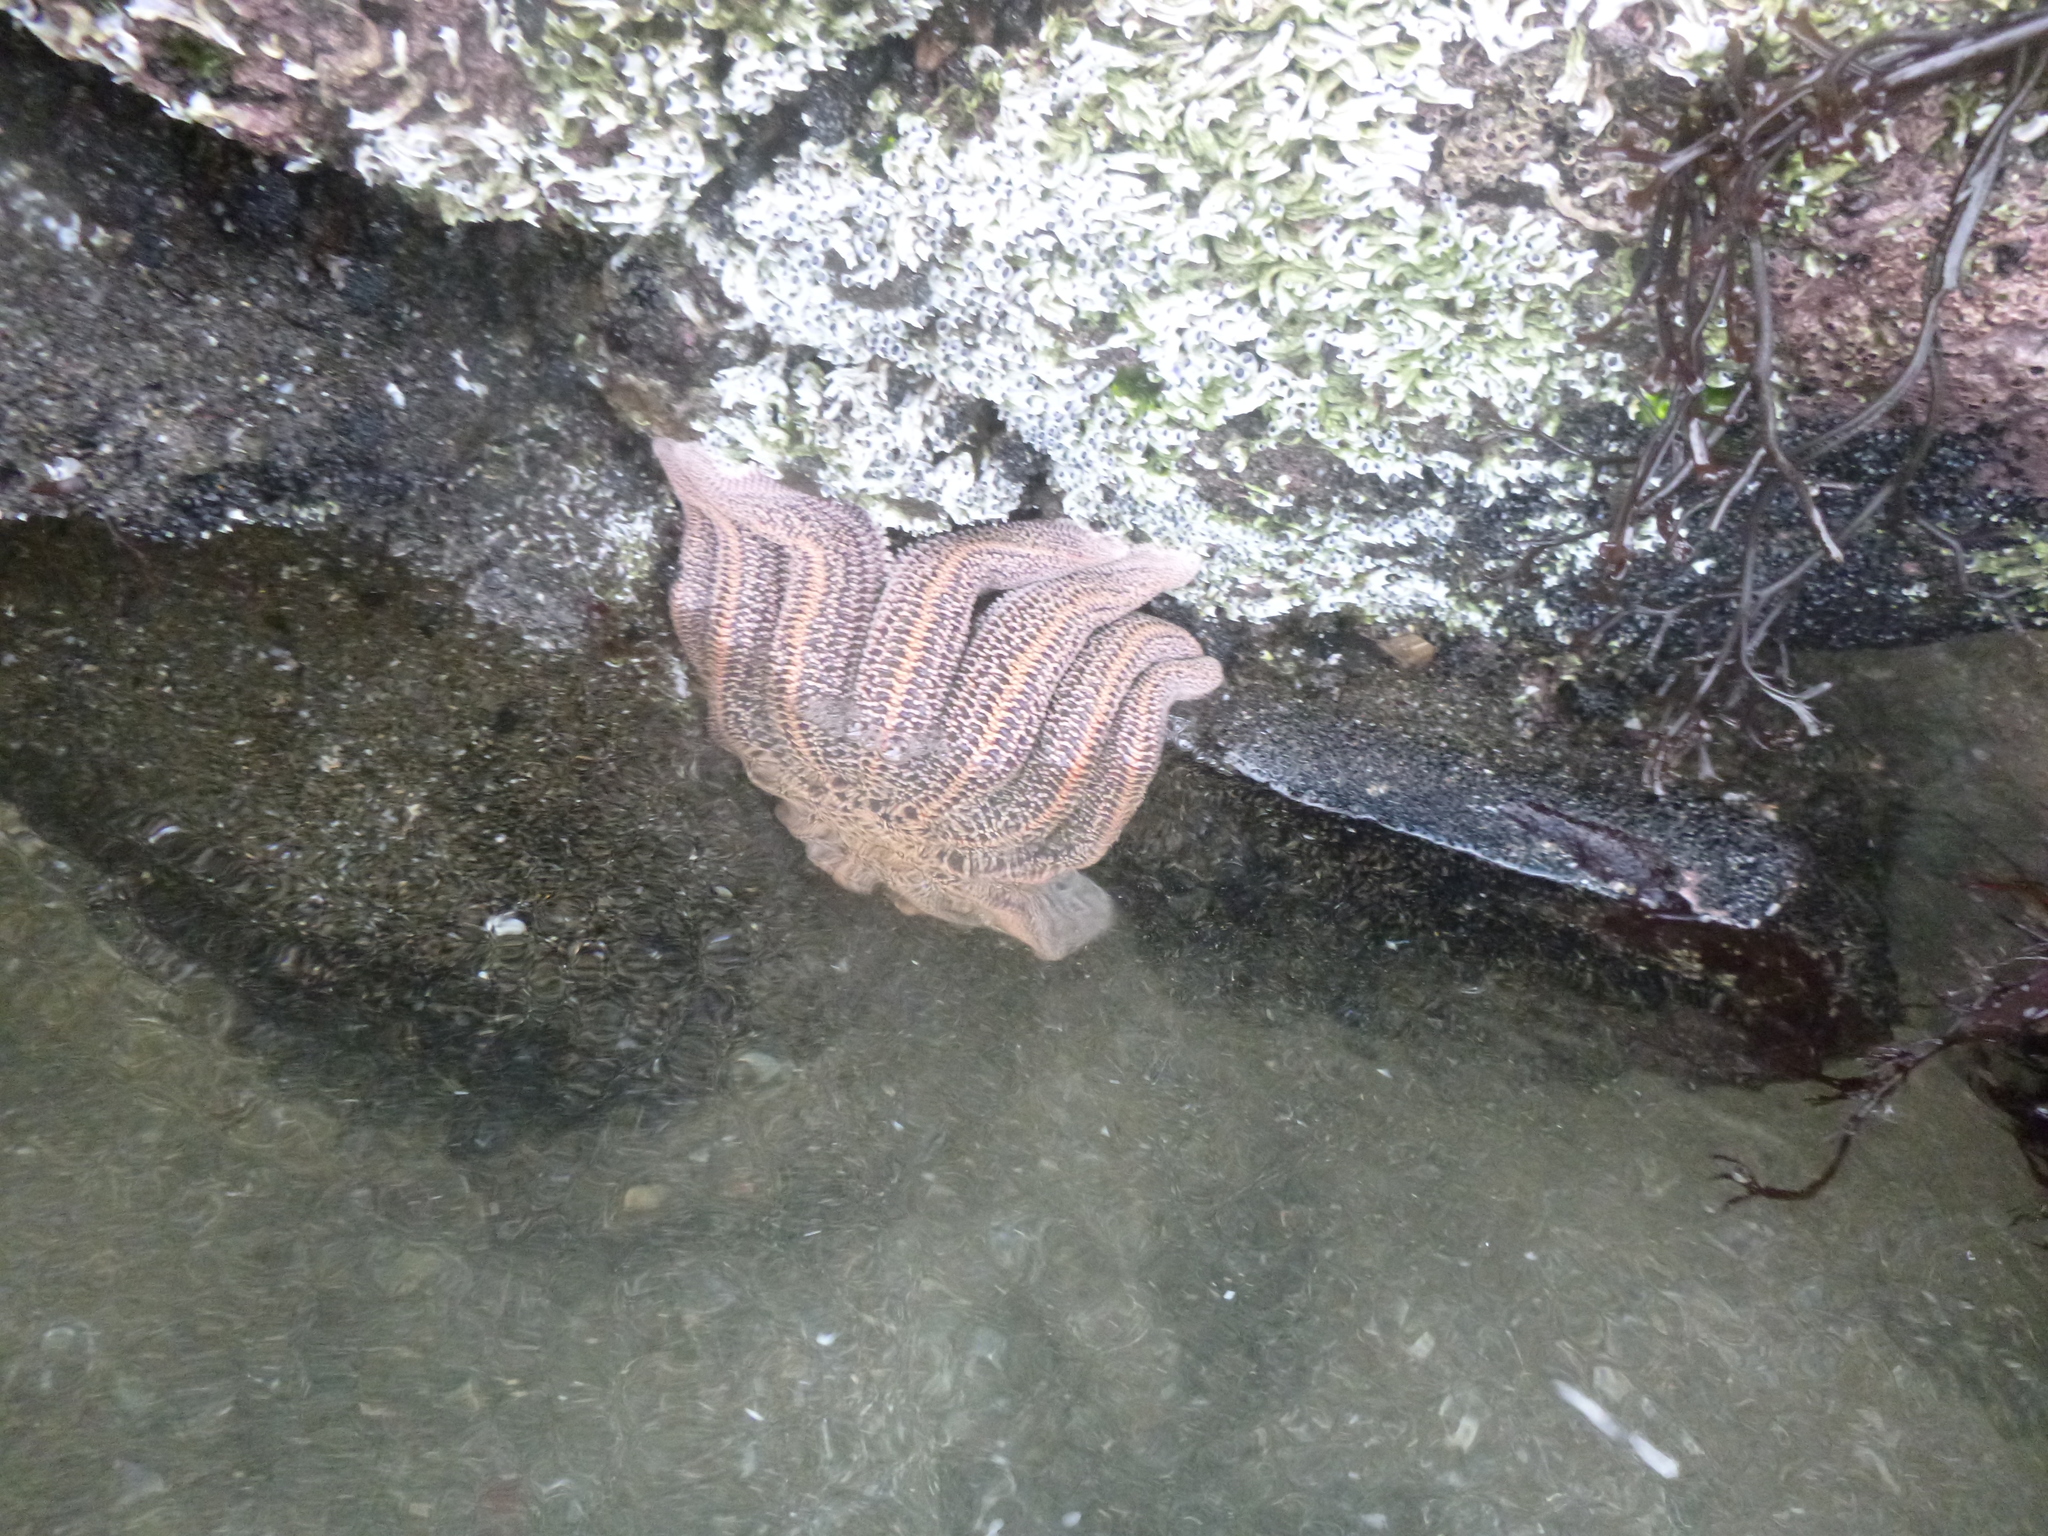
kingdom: Animalia
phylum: Echinodermata
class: Asteroidea
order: Forcipulatida
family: Stichasteridae
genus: Stichaster
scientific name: Stichaster australis
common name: Reef starfish
